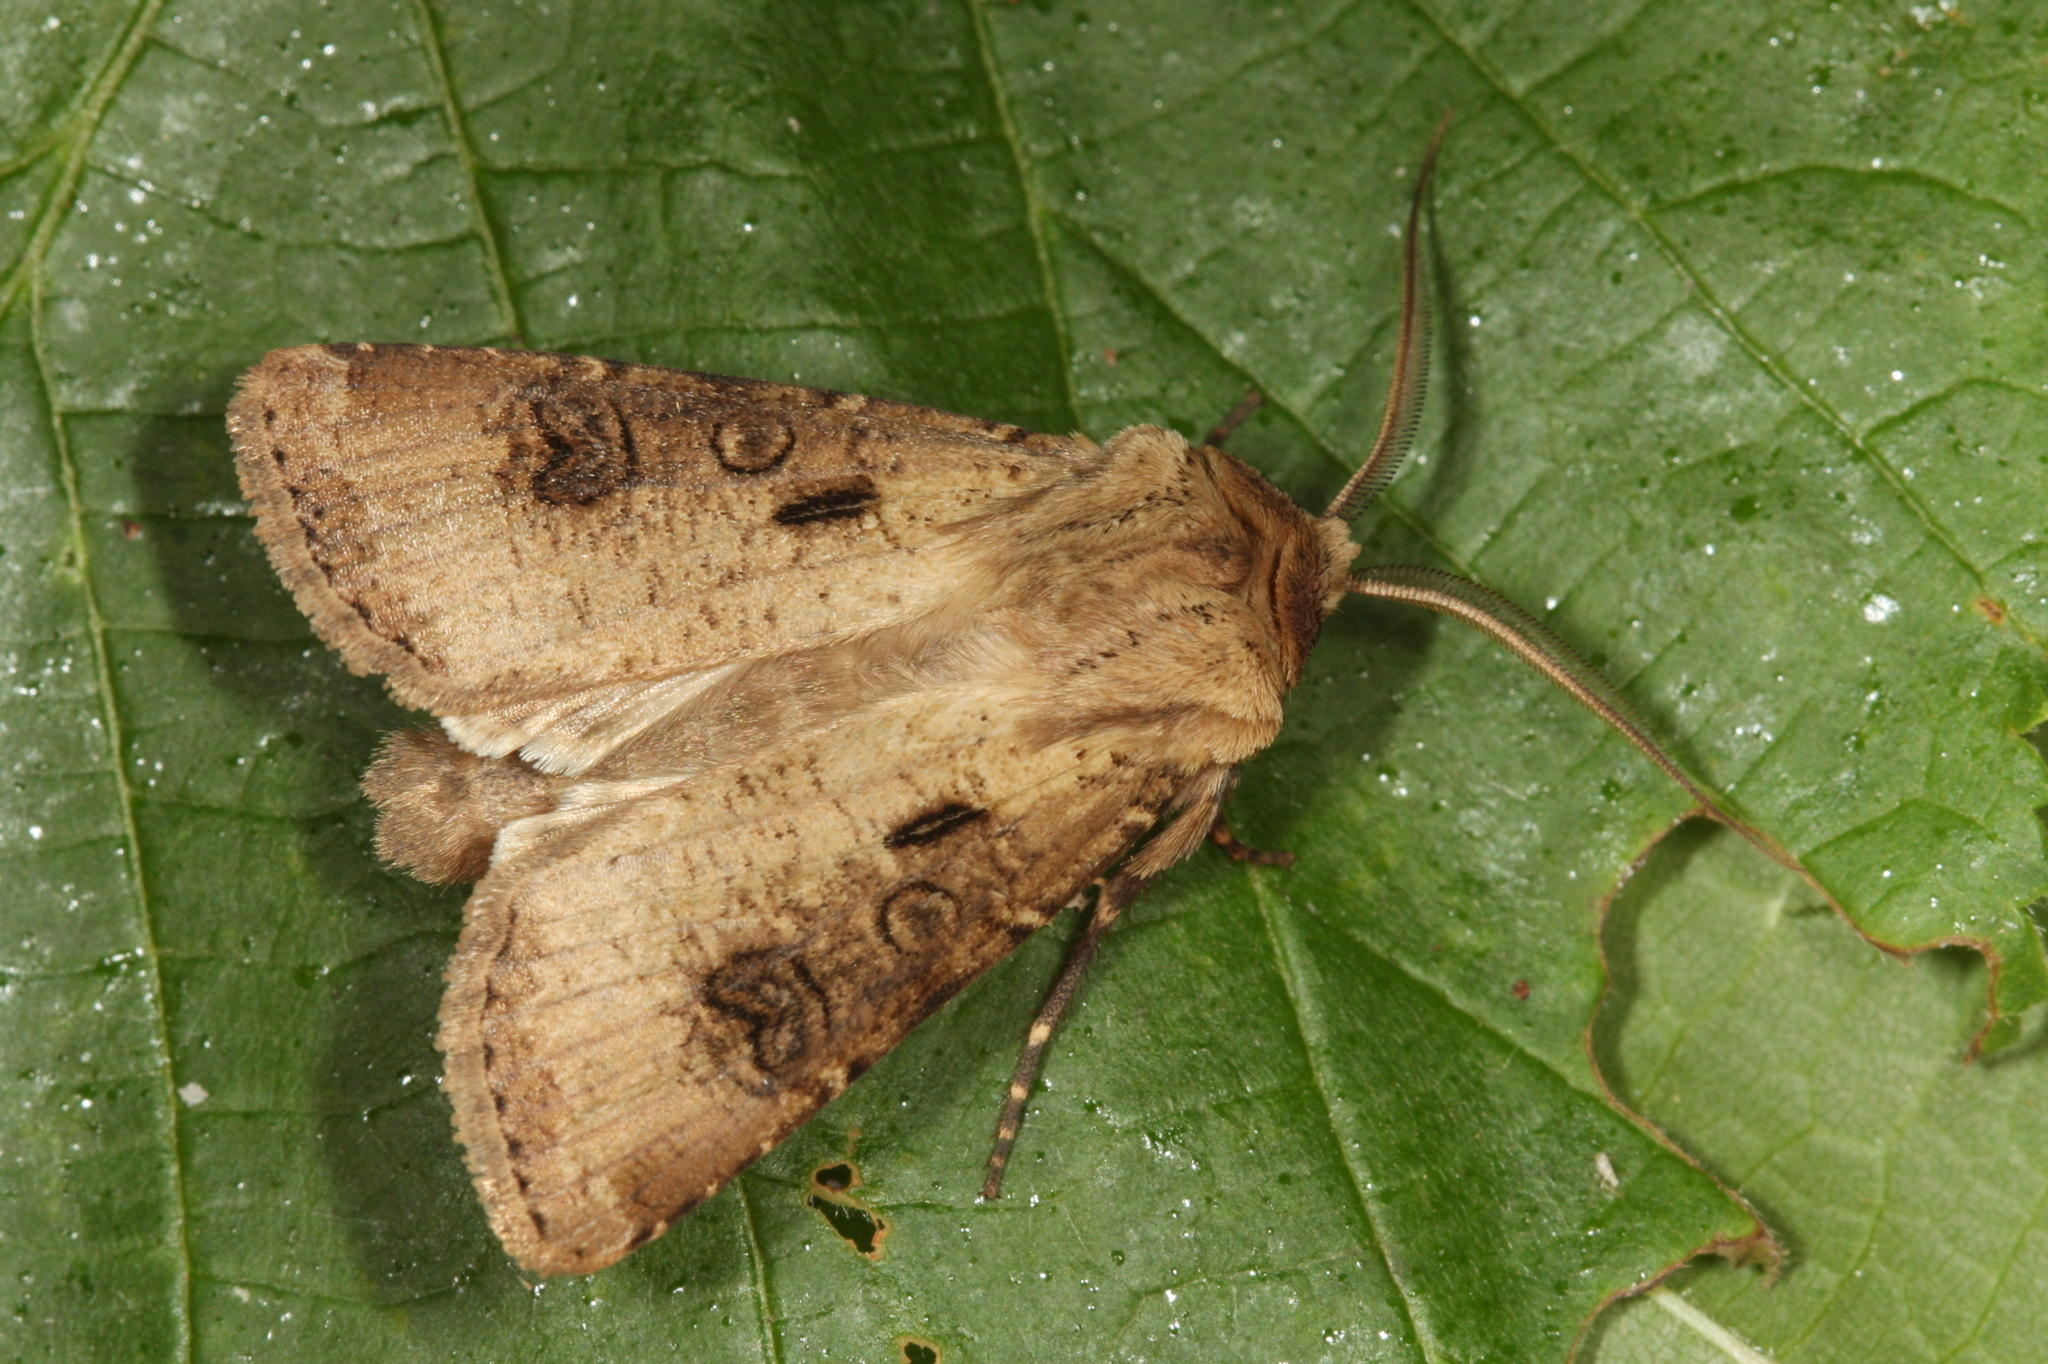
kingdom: Animalia
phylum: Arthropoda
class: Insecta
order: Lepidoptera
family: Noctuidae
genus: Agrotis
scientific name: Agrotis clavis
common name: Heart and club
